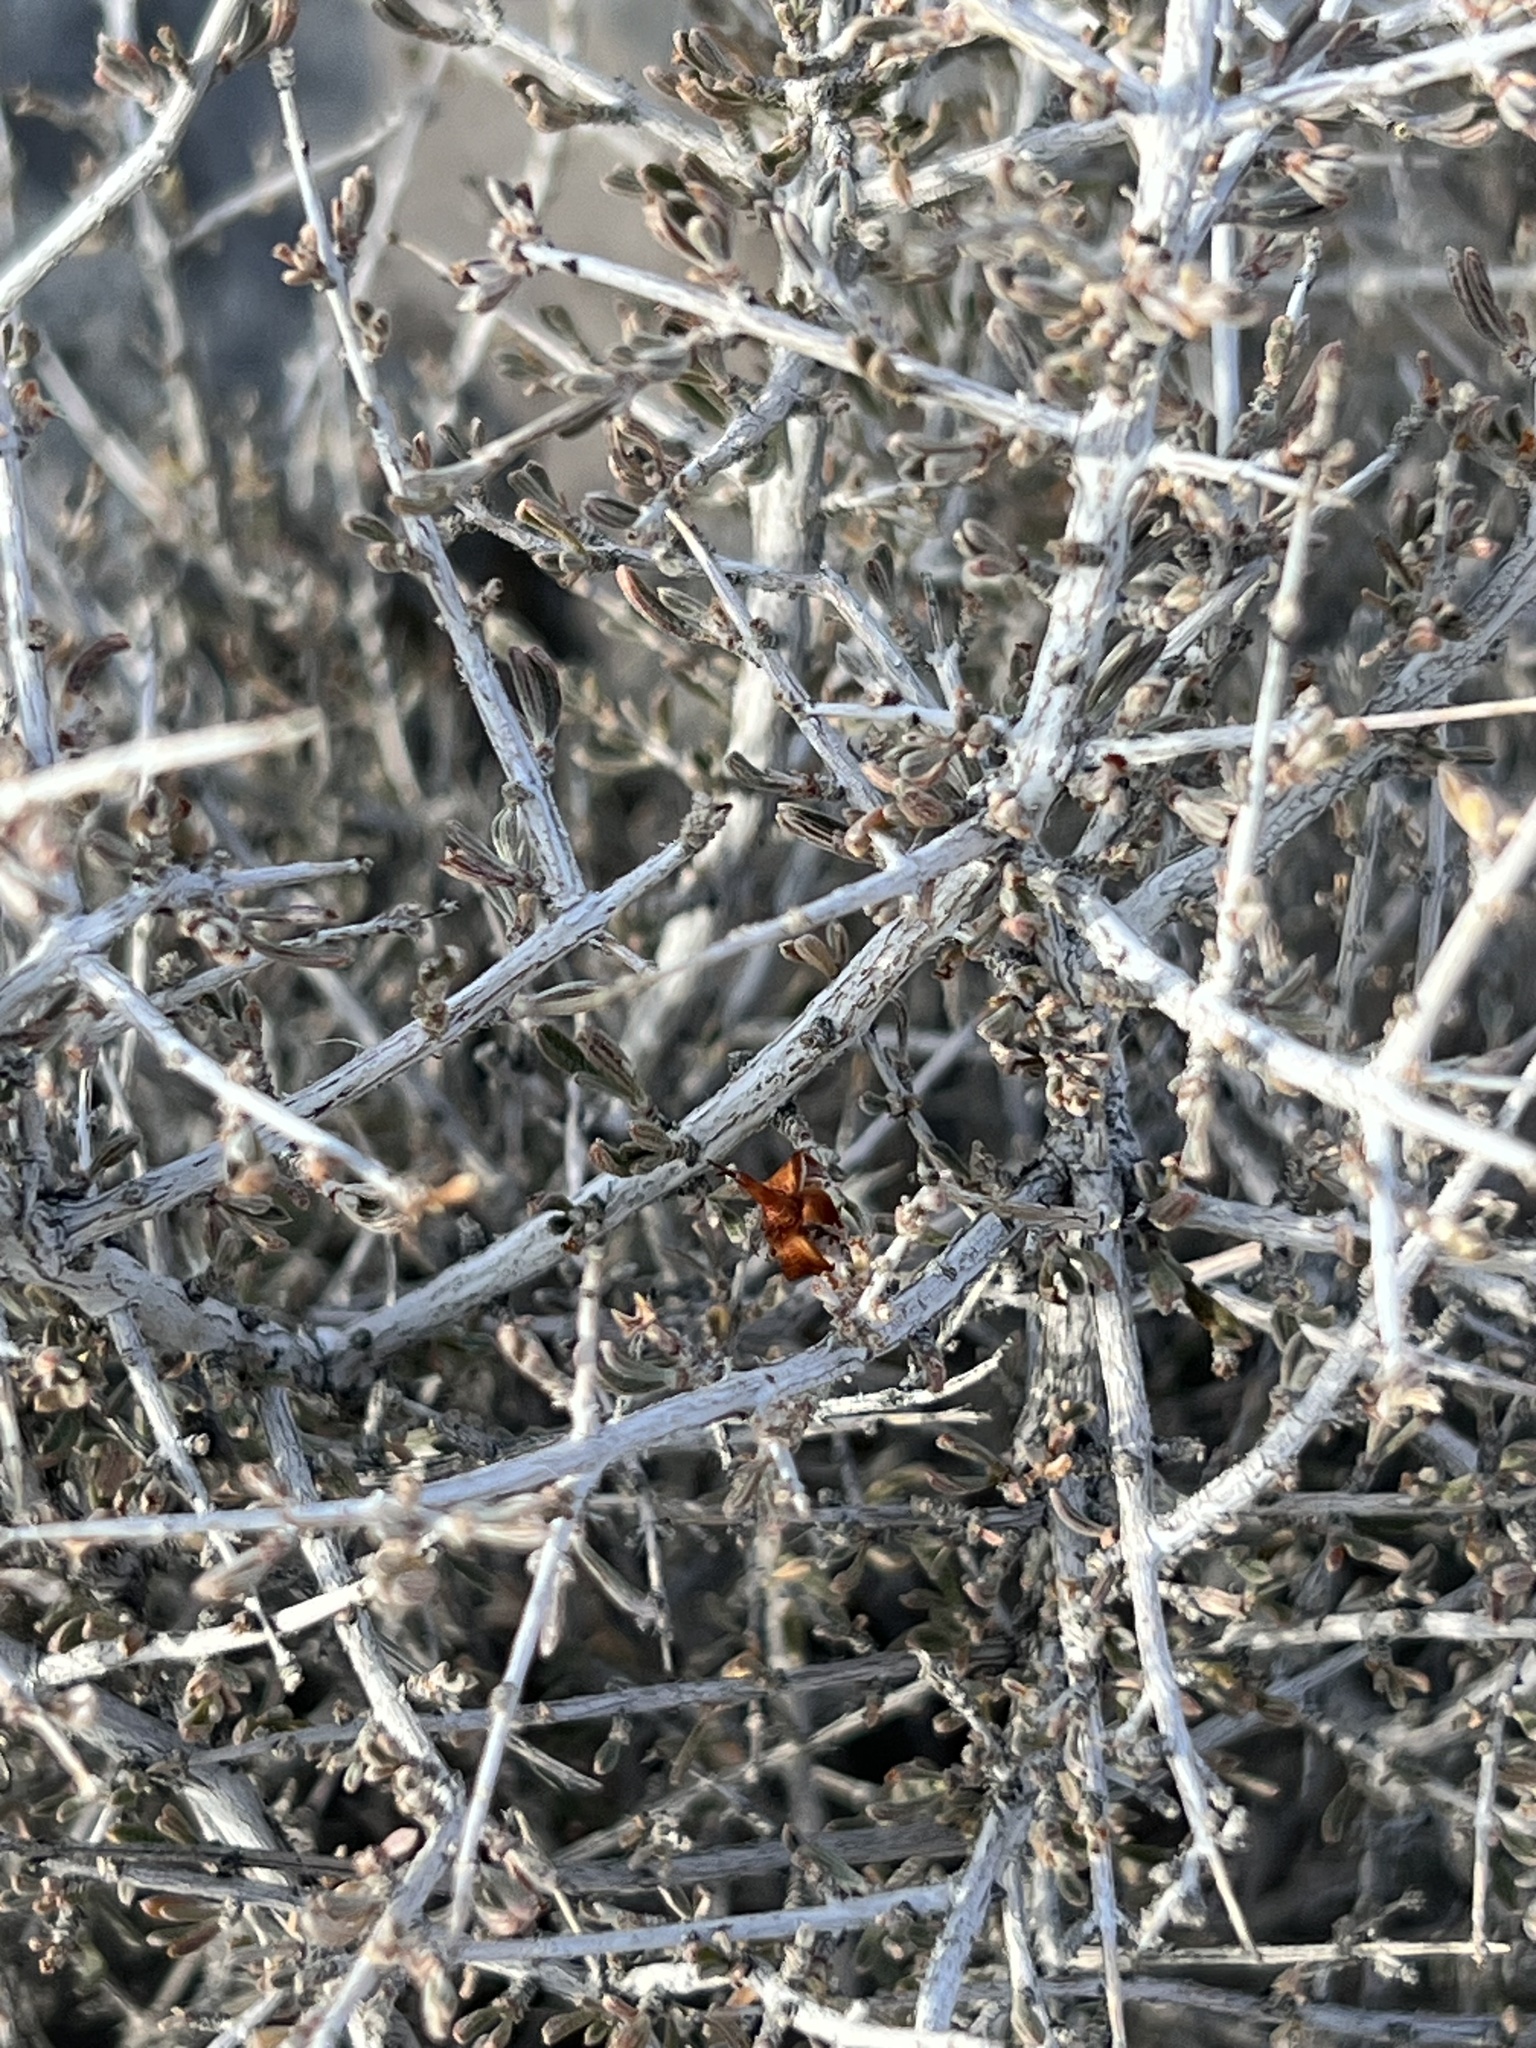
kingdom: Plantae
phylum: Tracheophyta
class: Magnoliopsida
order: Rosales
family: Rosaceae
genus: Coleogyne
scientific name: Coleogyne ramosissima
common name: Blackbrush
